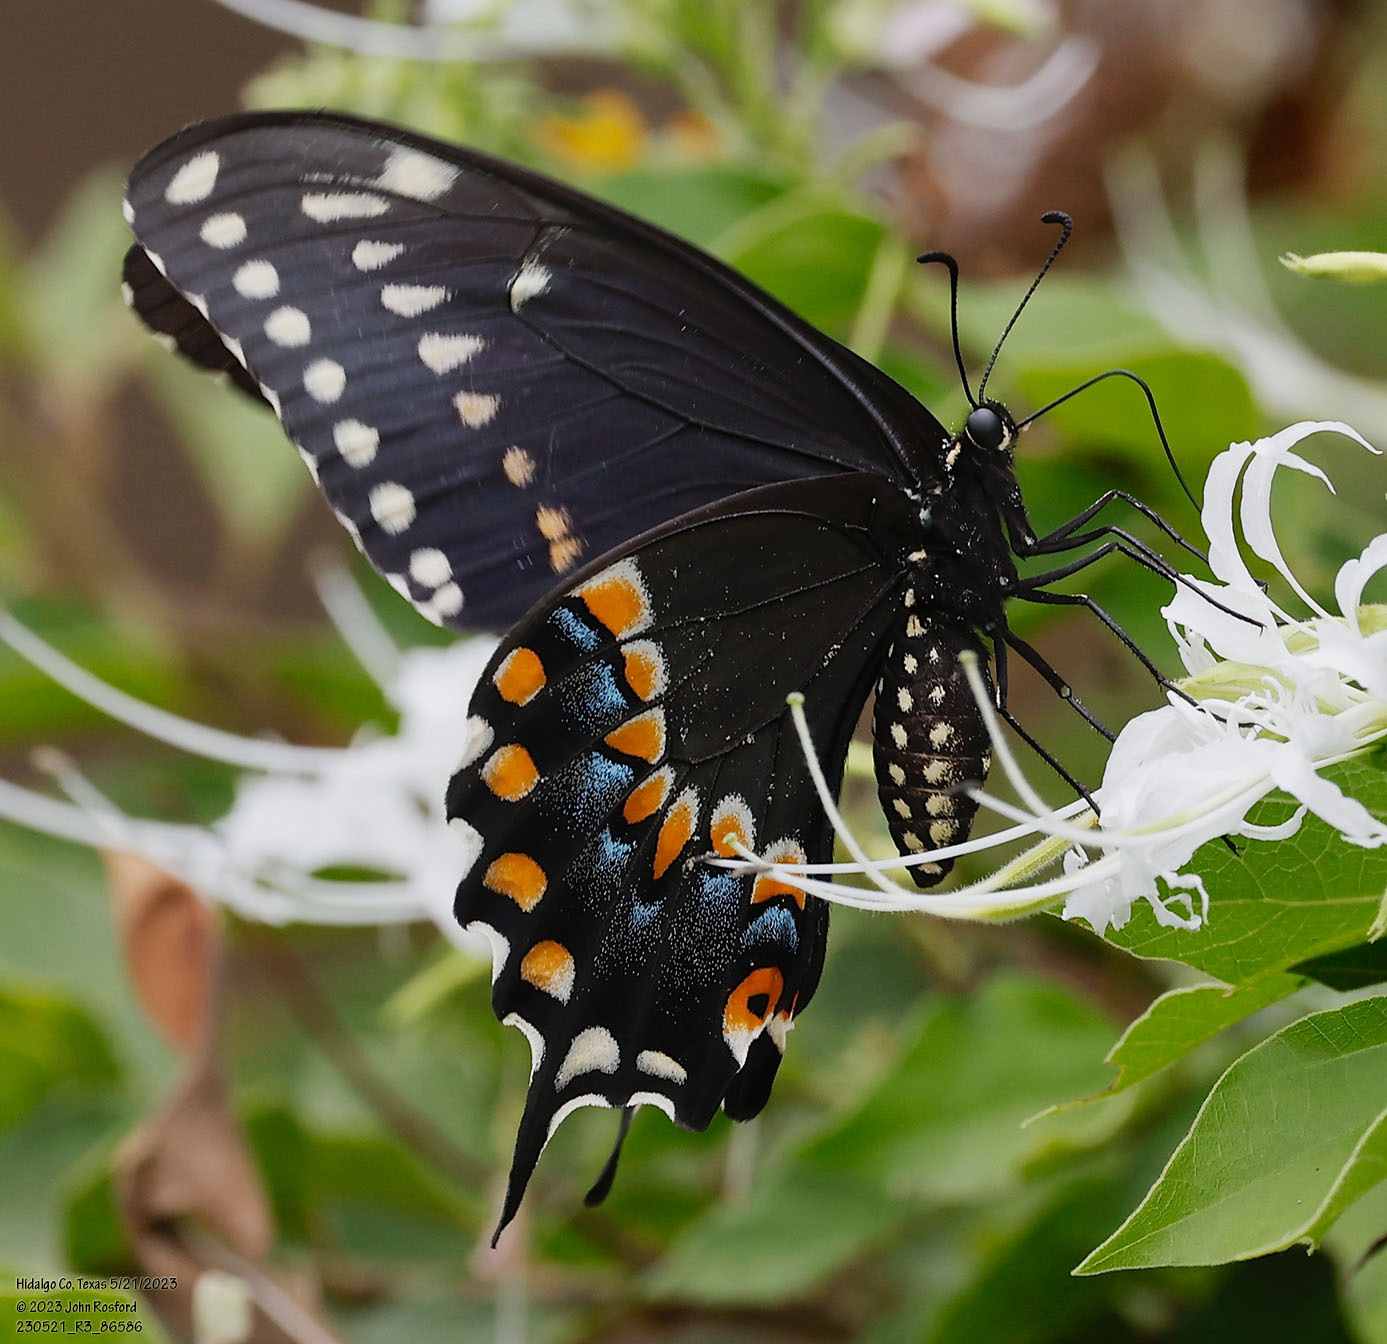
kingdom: Animalia
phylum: Arthropoda
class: Insecta
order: Lepidoptera
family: Papilionidae
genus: Papilio
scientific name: Papilio polyxenes
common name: Black swallowtail
